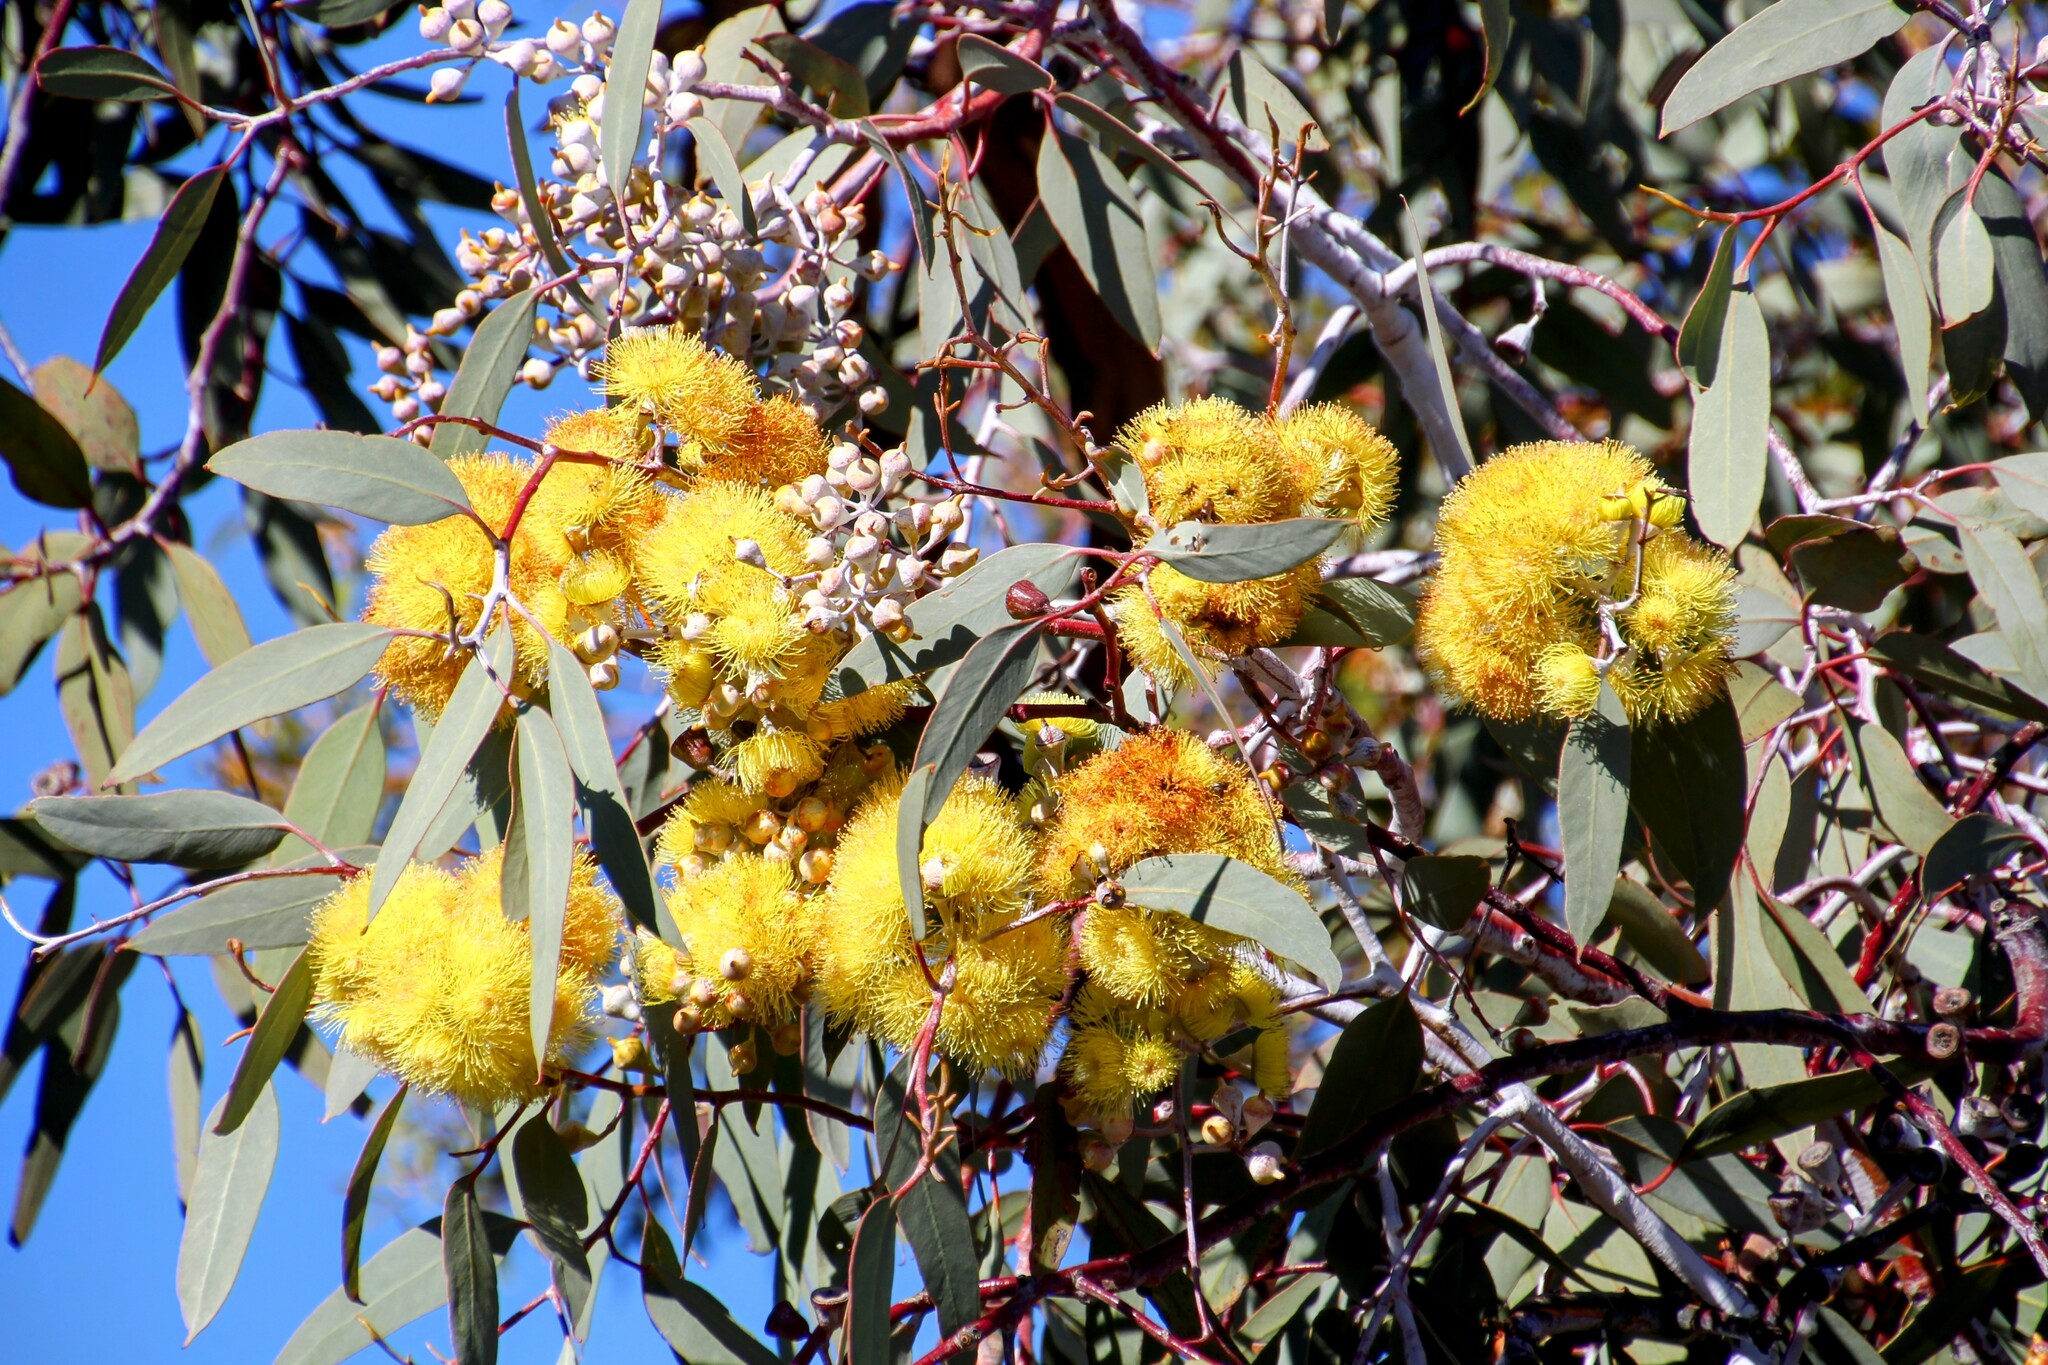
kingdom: Plantae
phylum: Tracheophyta
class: Magnoliopsida
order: Myrtales
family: Myrtaceae
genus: Eucalyptus
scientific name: Eucalyptus woodwardii
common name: Lemon-flowered mallee
